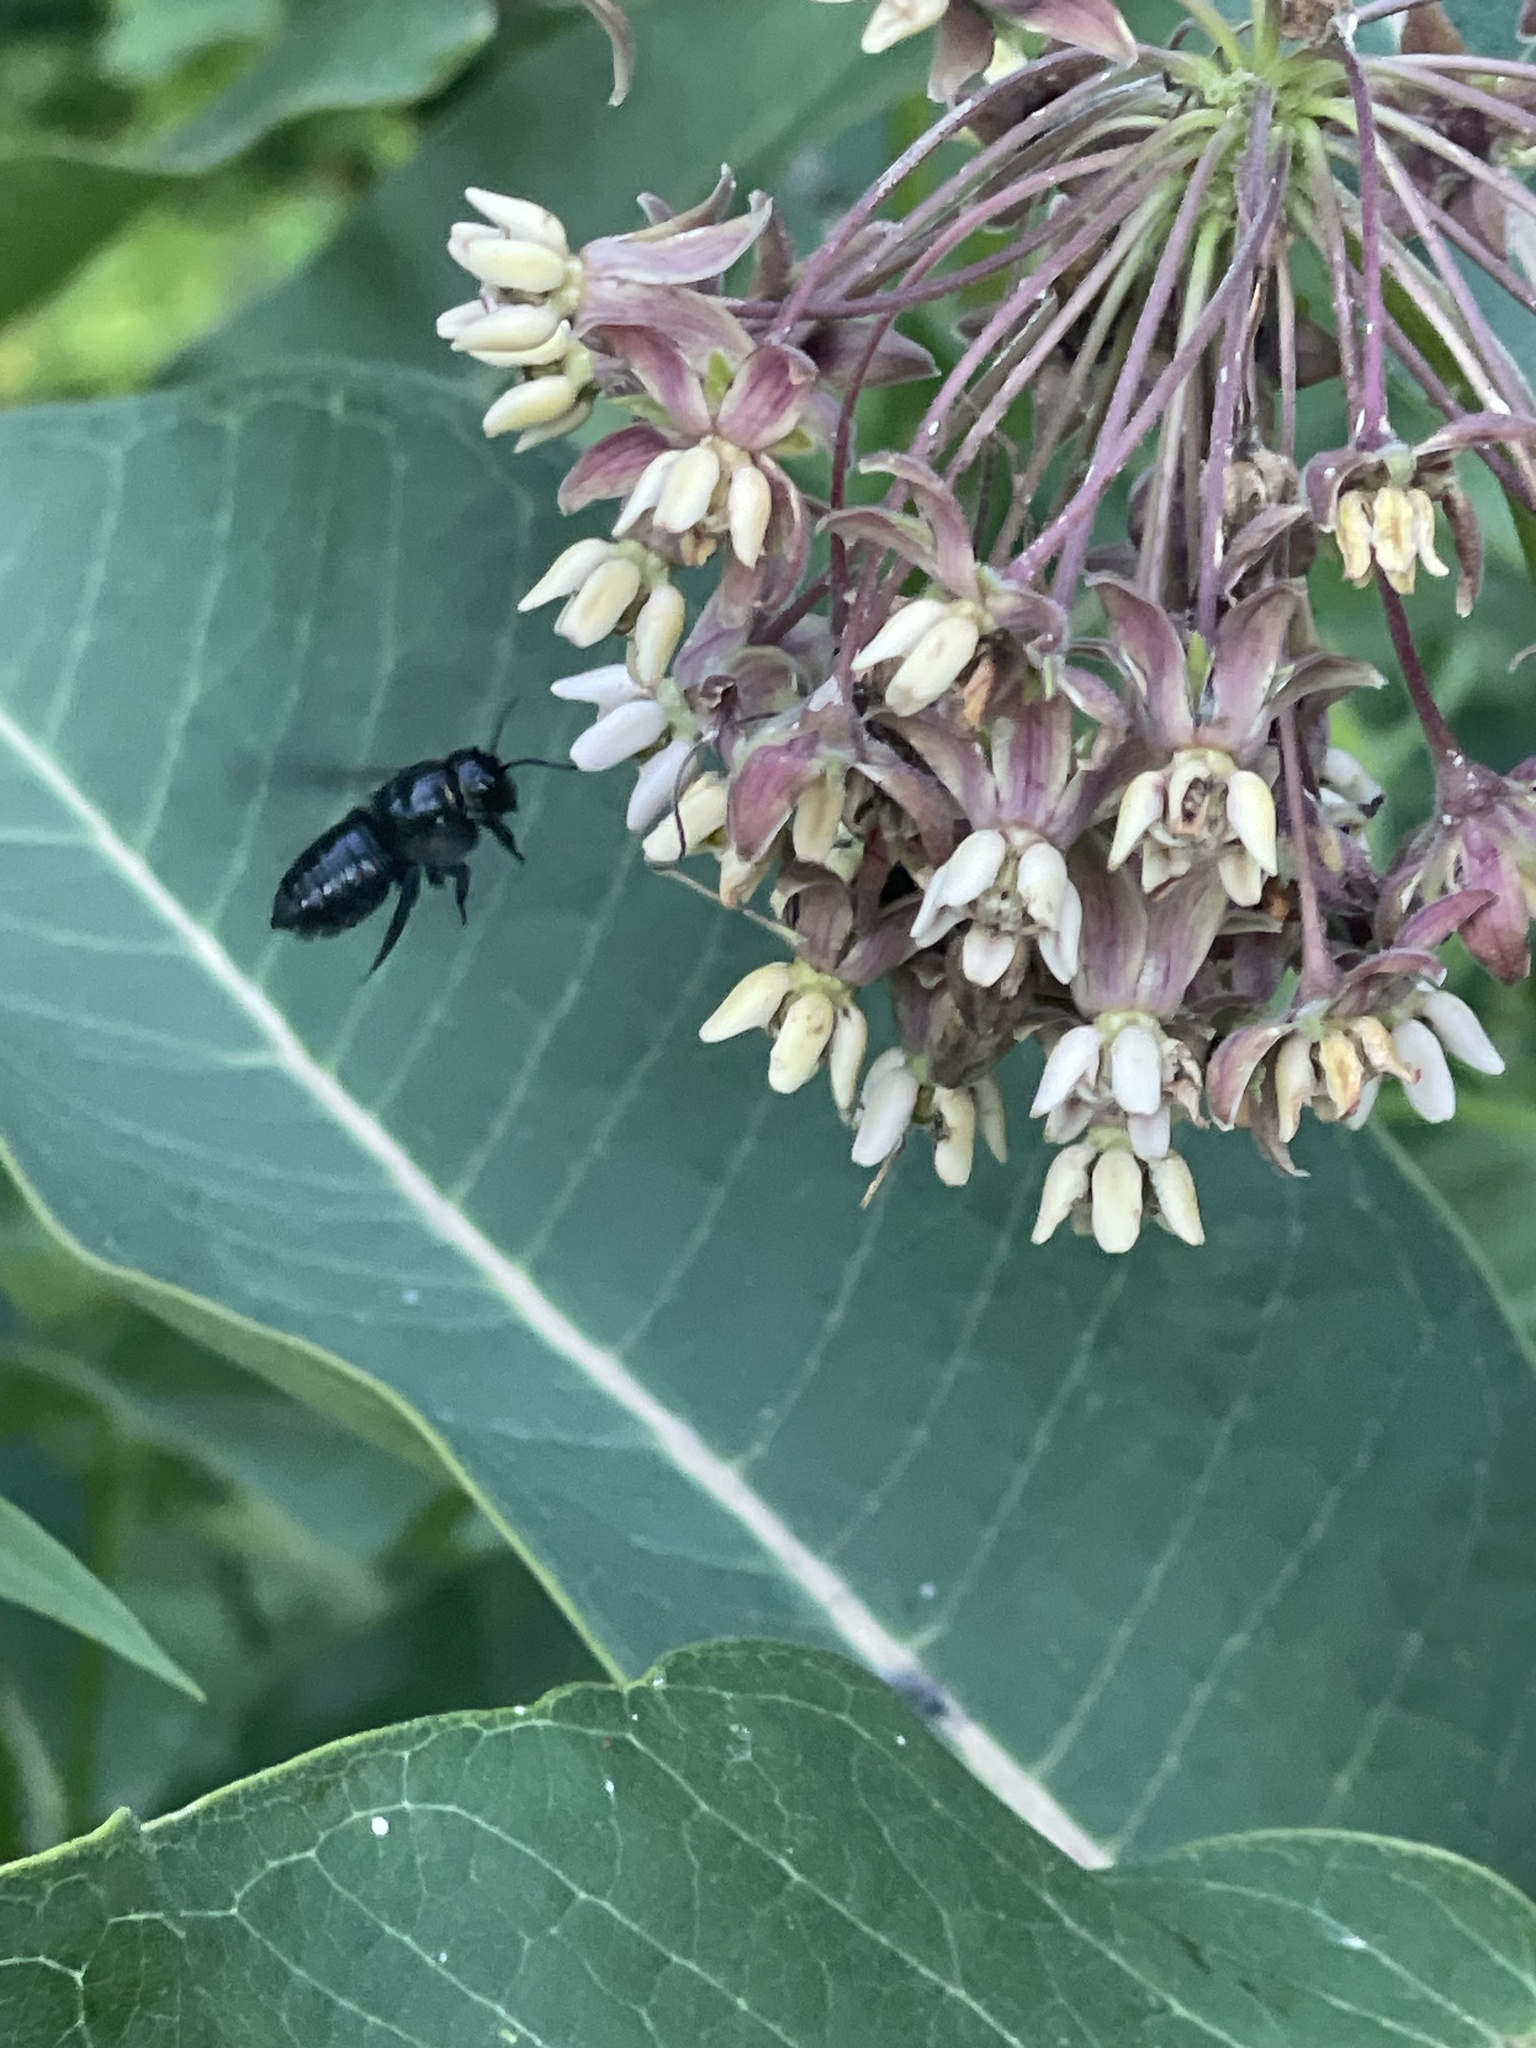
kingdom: Animalia
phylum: Arthropoda
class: Insecta
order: Hymenoptera
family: Megachilidae
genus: Megachile
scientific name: Megachile xylocopoides
